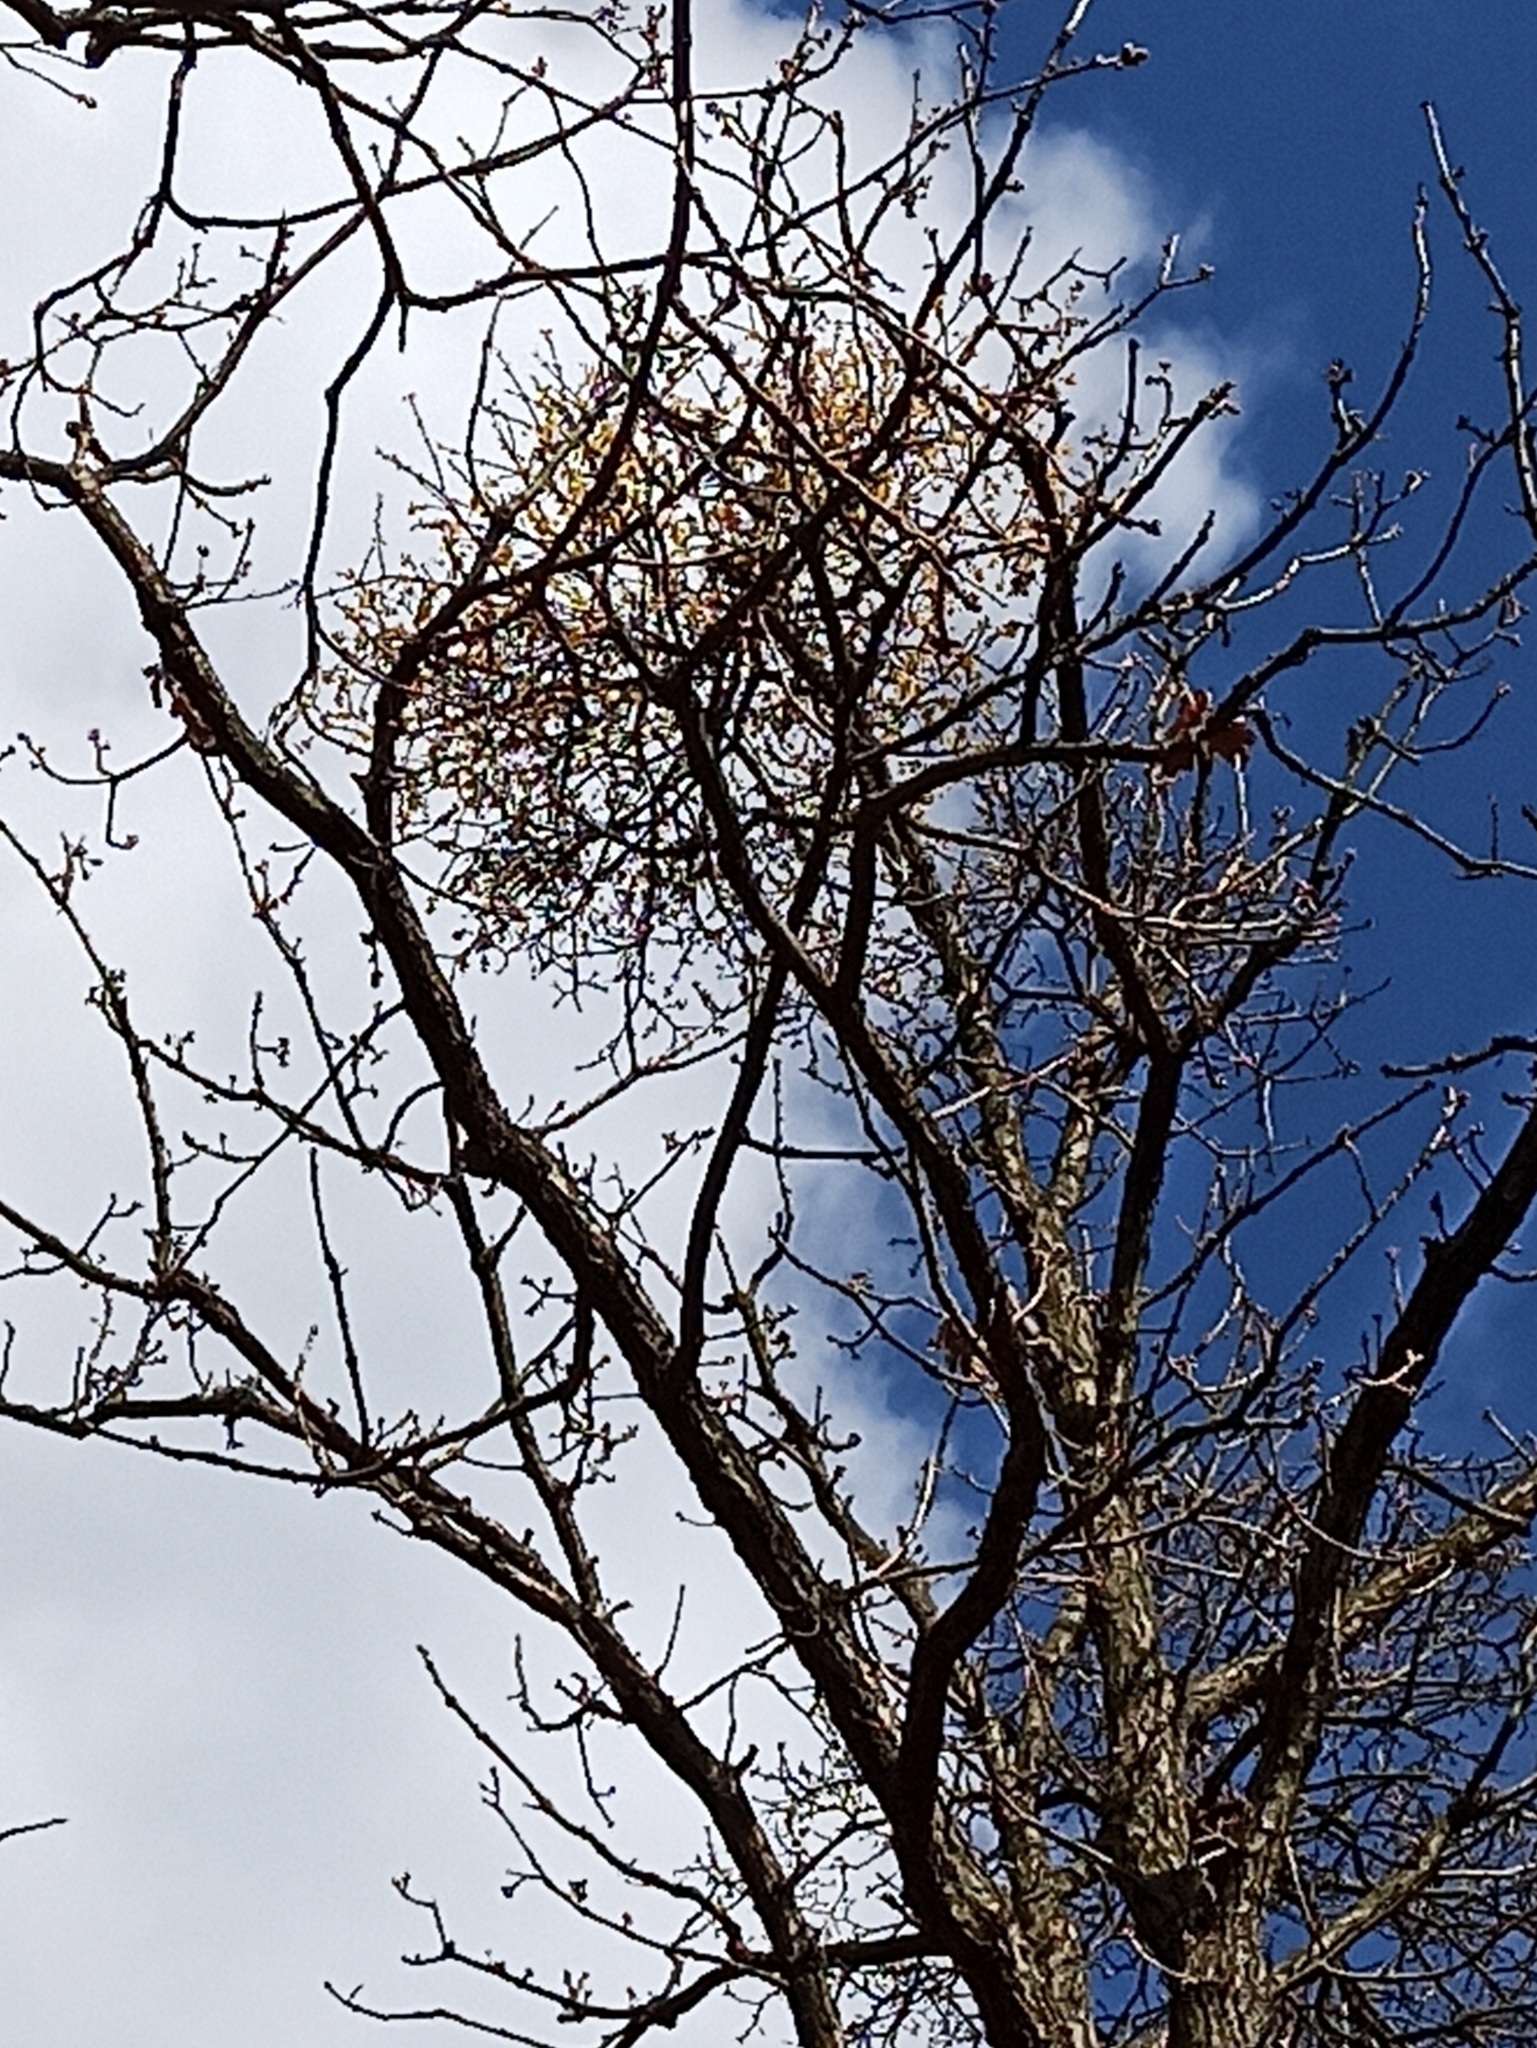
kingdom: Plantae
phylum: Tracheophyta
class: Magnoliopsida
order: Santalales
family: Loranthaceae
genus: Loranthus
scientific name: Loranthus europaeus
